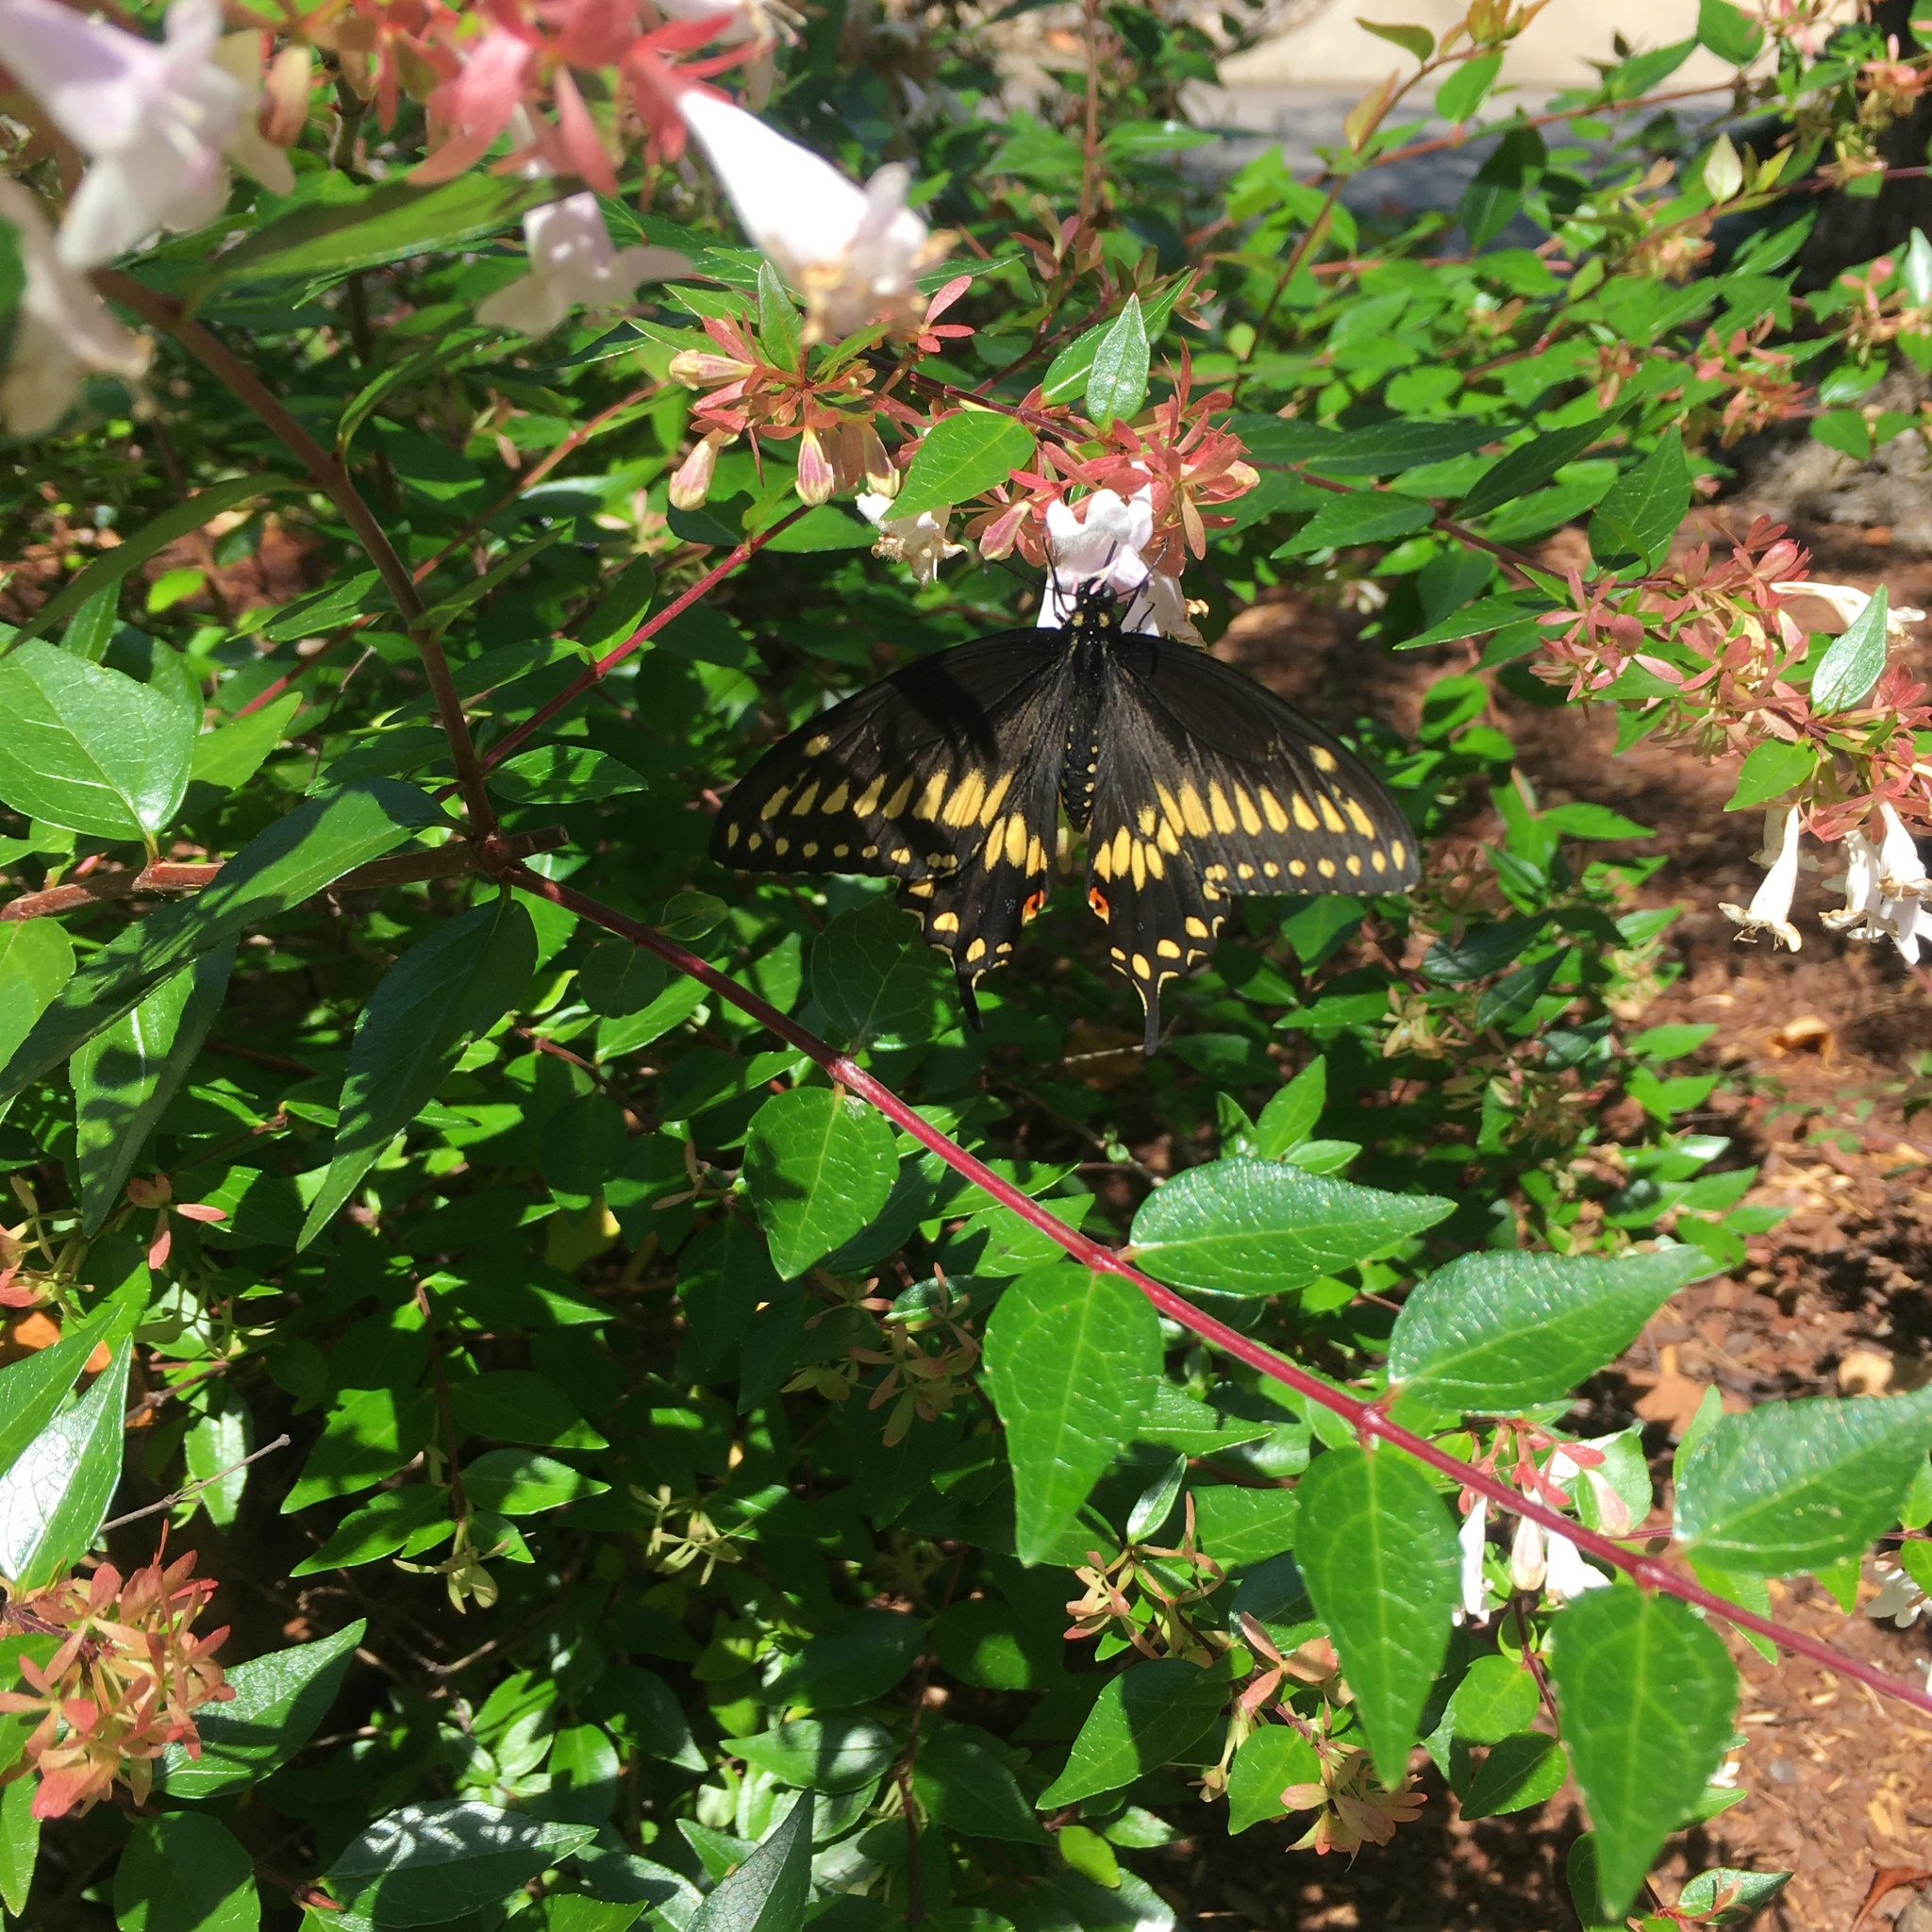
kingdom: Animalia
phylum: Arthropoda
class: Insecta
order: Lepidoptera
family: Papilionidae
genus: Papilio
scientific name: Papilio polyxenes
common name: Black swallowtail
